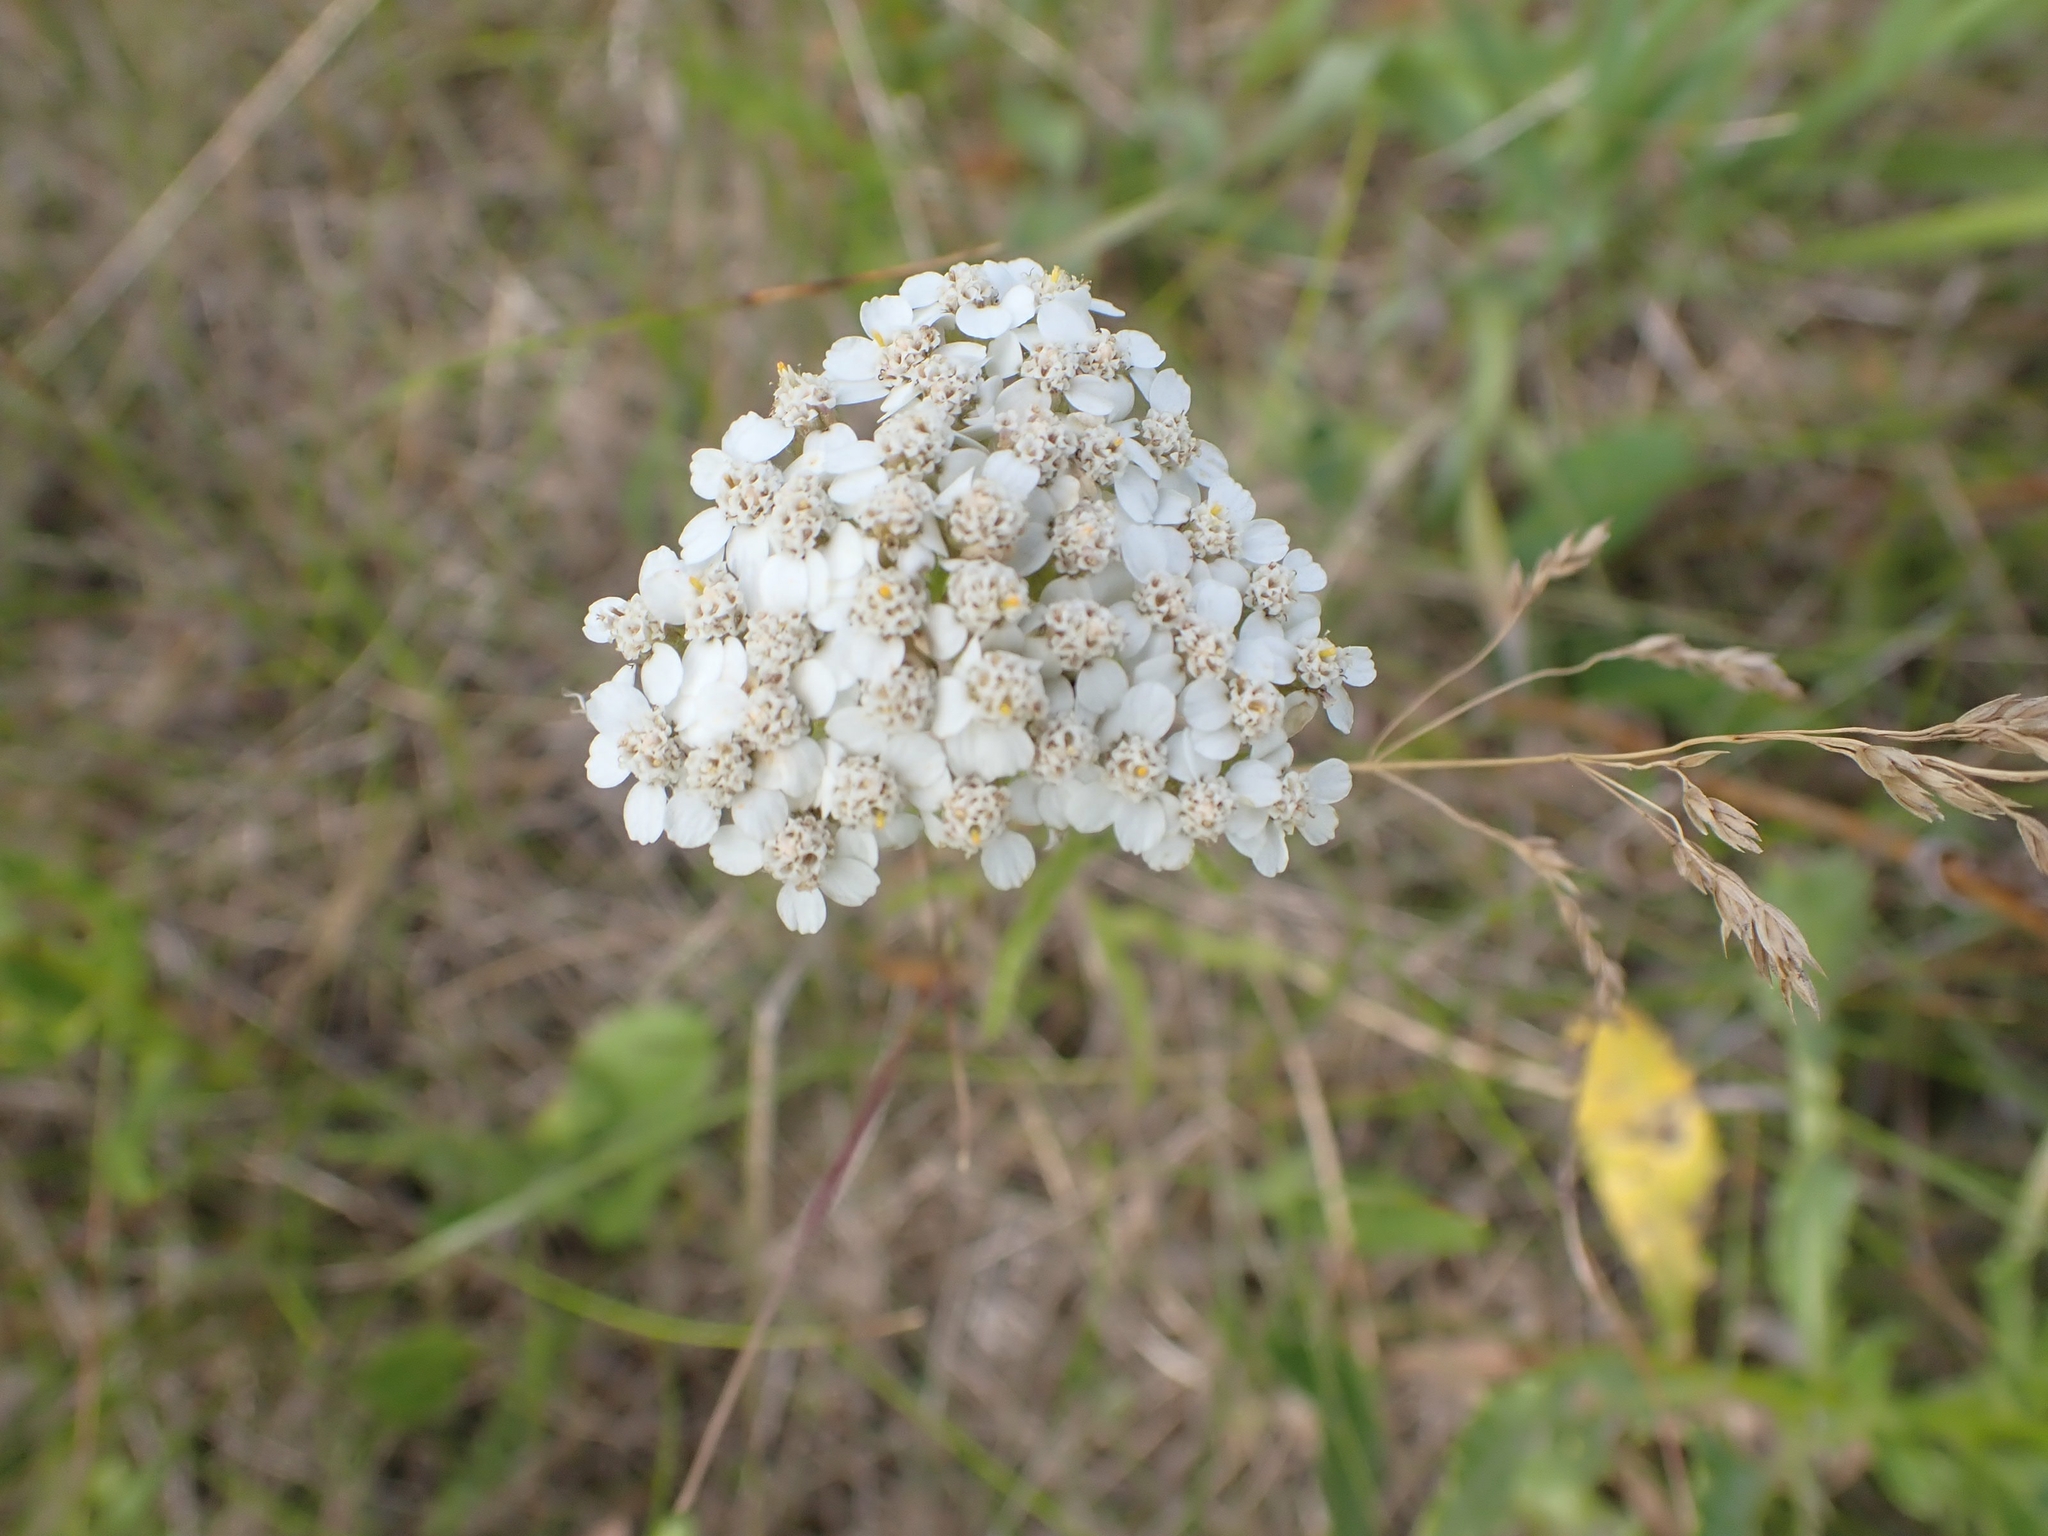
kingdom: Plantae
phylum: Tracheophyta
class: Magnoliopsida
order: Asterales
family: Asteraceae
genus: Achillea
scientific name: Achillea millefolium
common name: Yarrow
